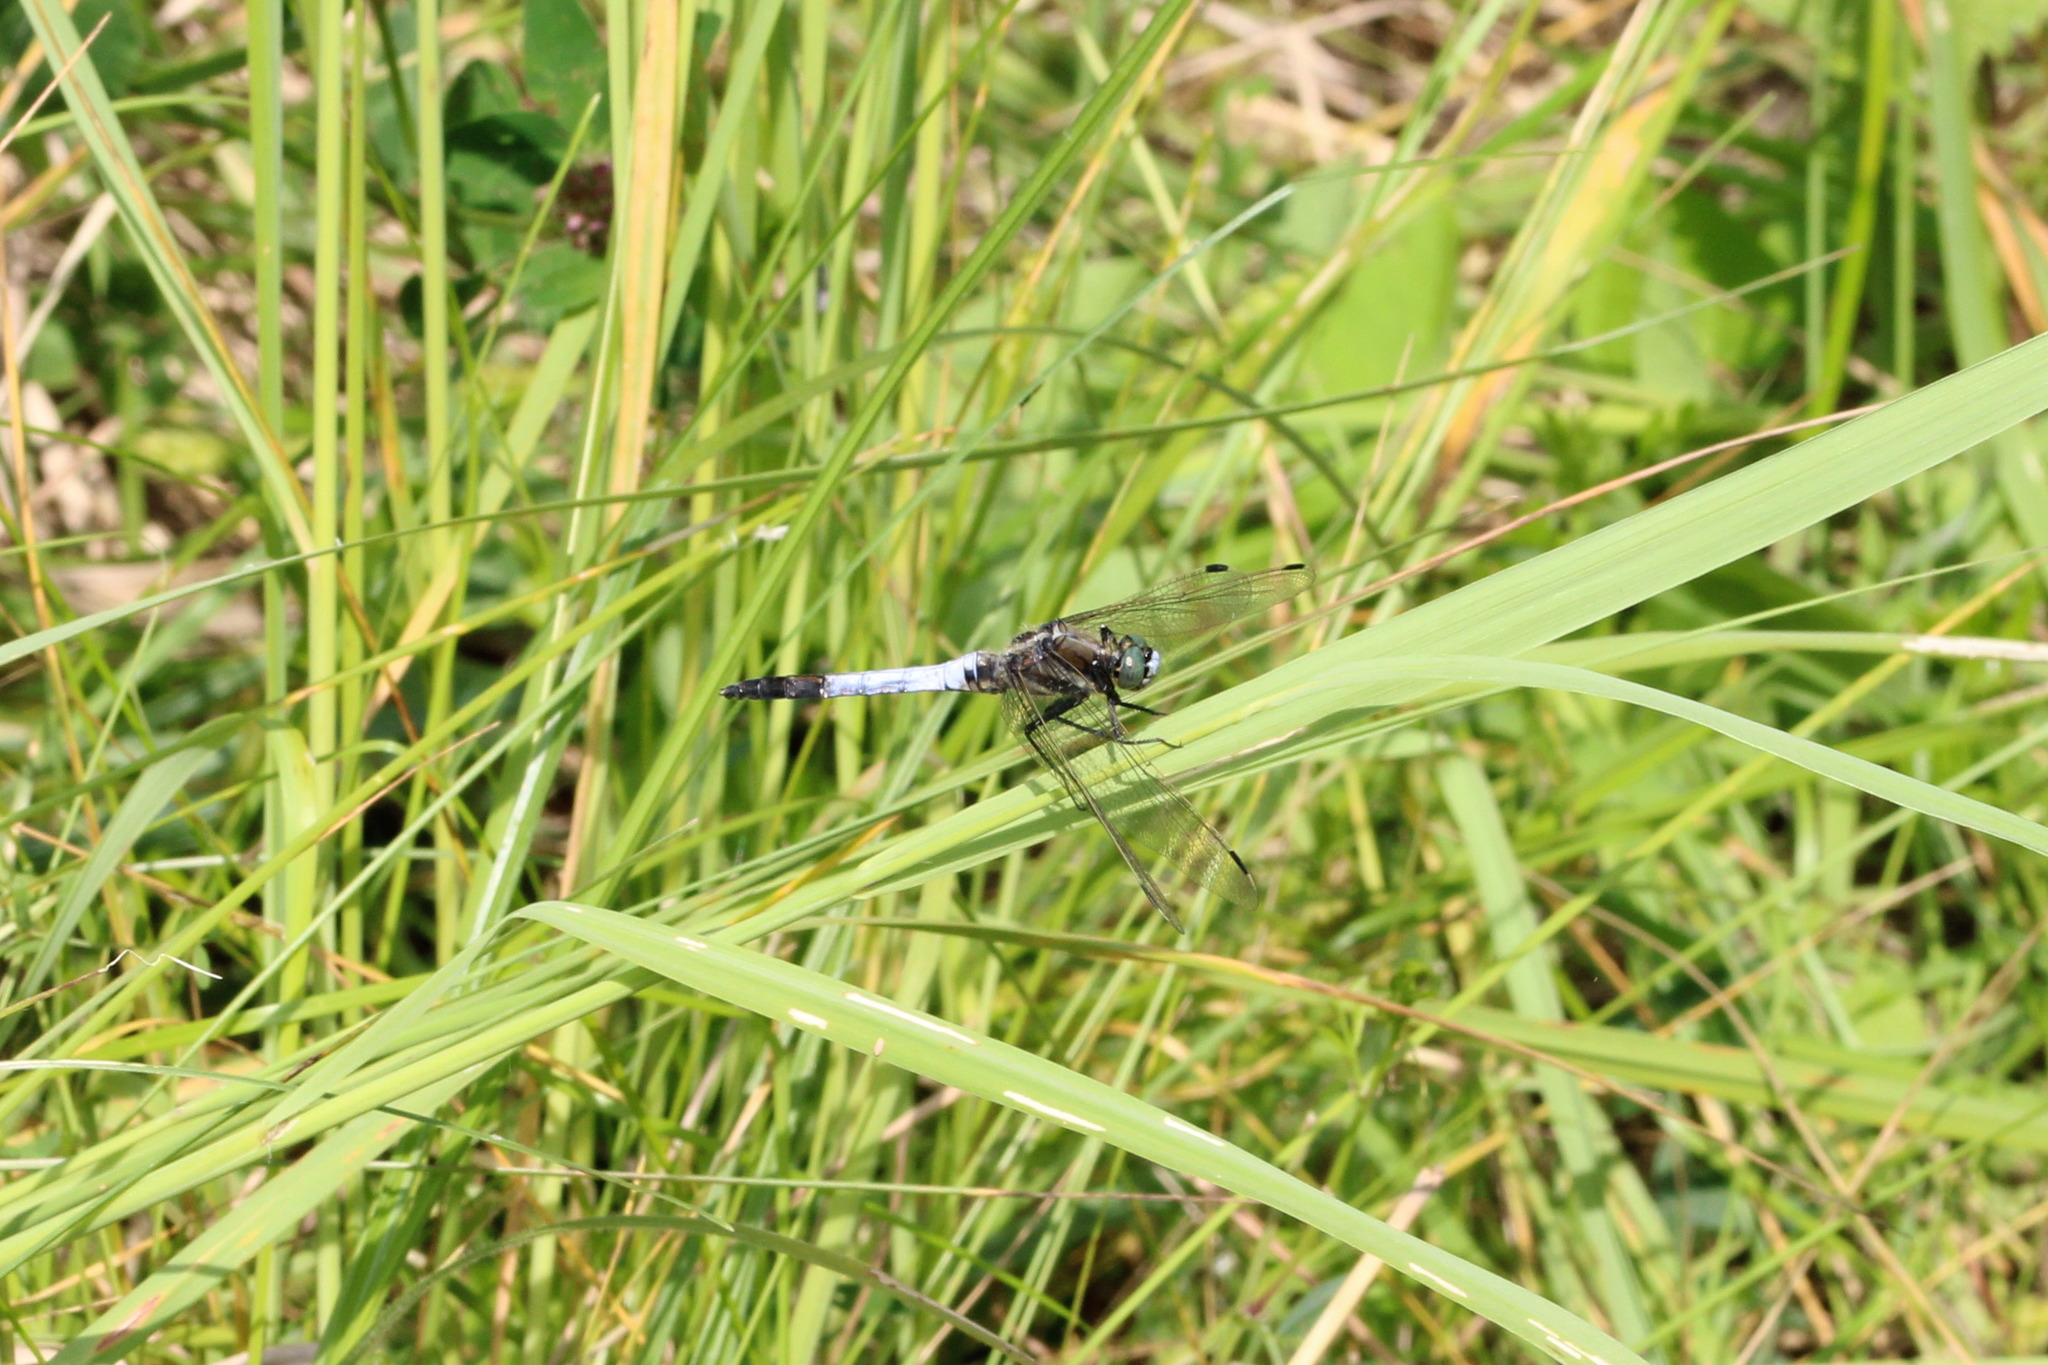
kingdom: Animalia
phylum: Arthropoda
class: Insecta
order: Odonata
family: Libellulidae
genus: Orthetrum
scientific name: Orthetrum albistylum
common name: White-tailed skimmer
